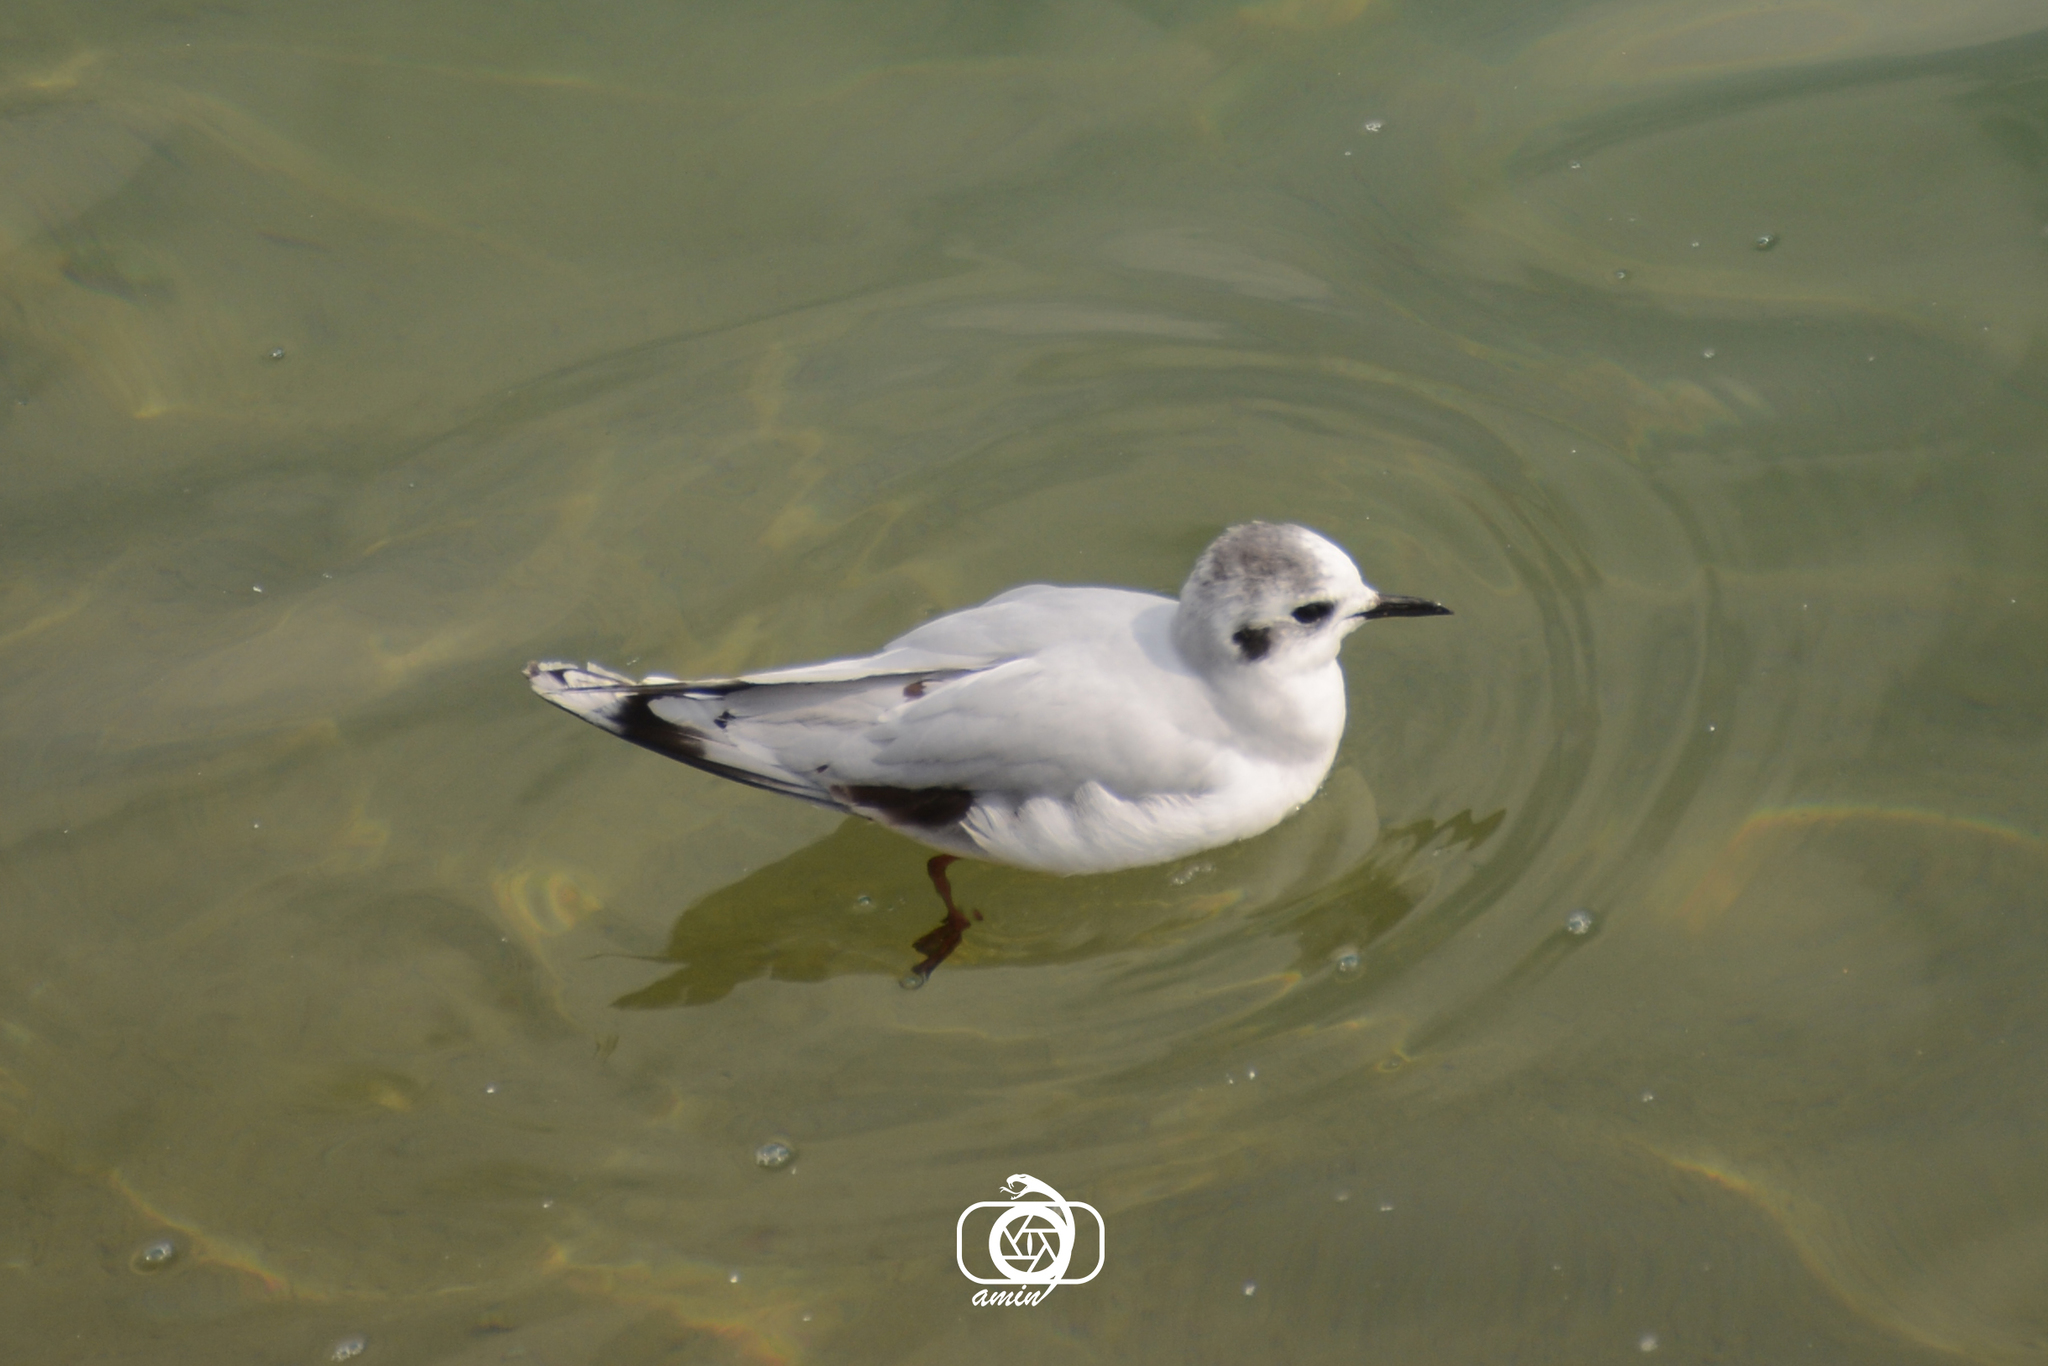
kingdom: Animalia
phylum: Chordata
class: Aves
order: Charadriiformes
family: Laridae
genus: Hydrocoloeus
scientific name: Hydrocoloeus minutus
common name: Little gull
